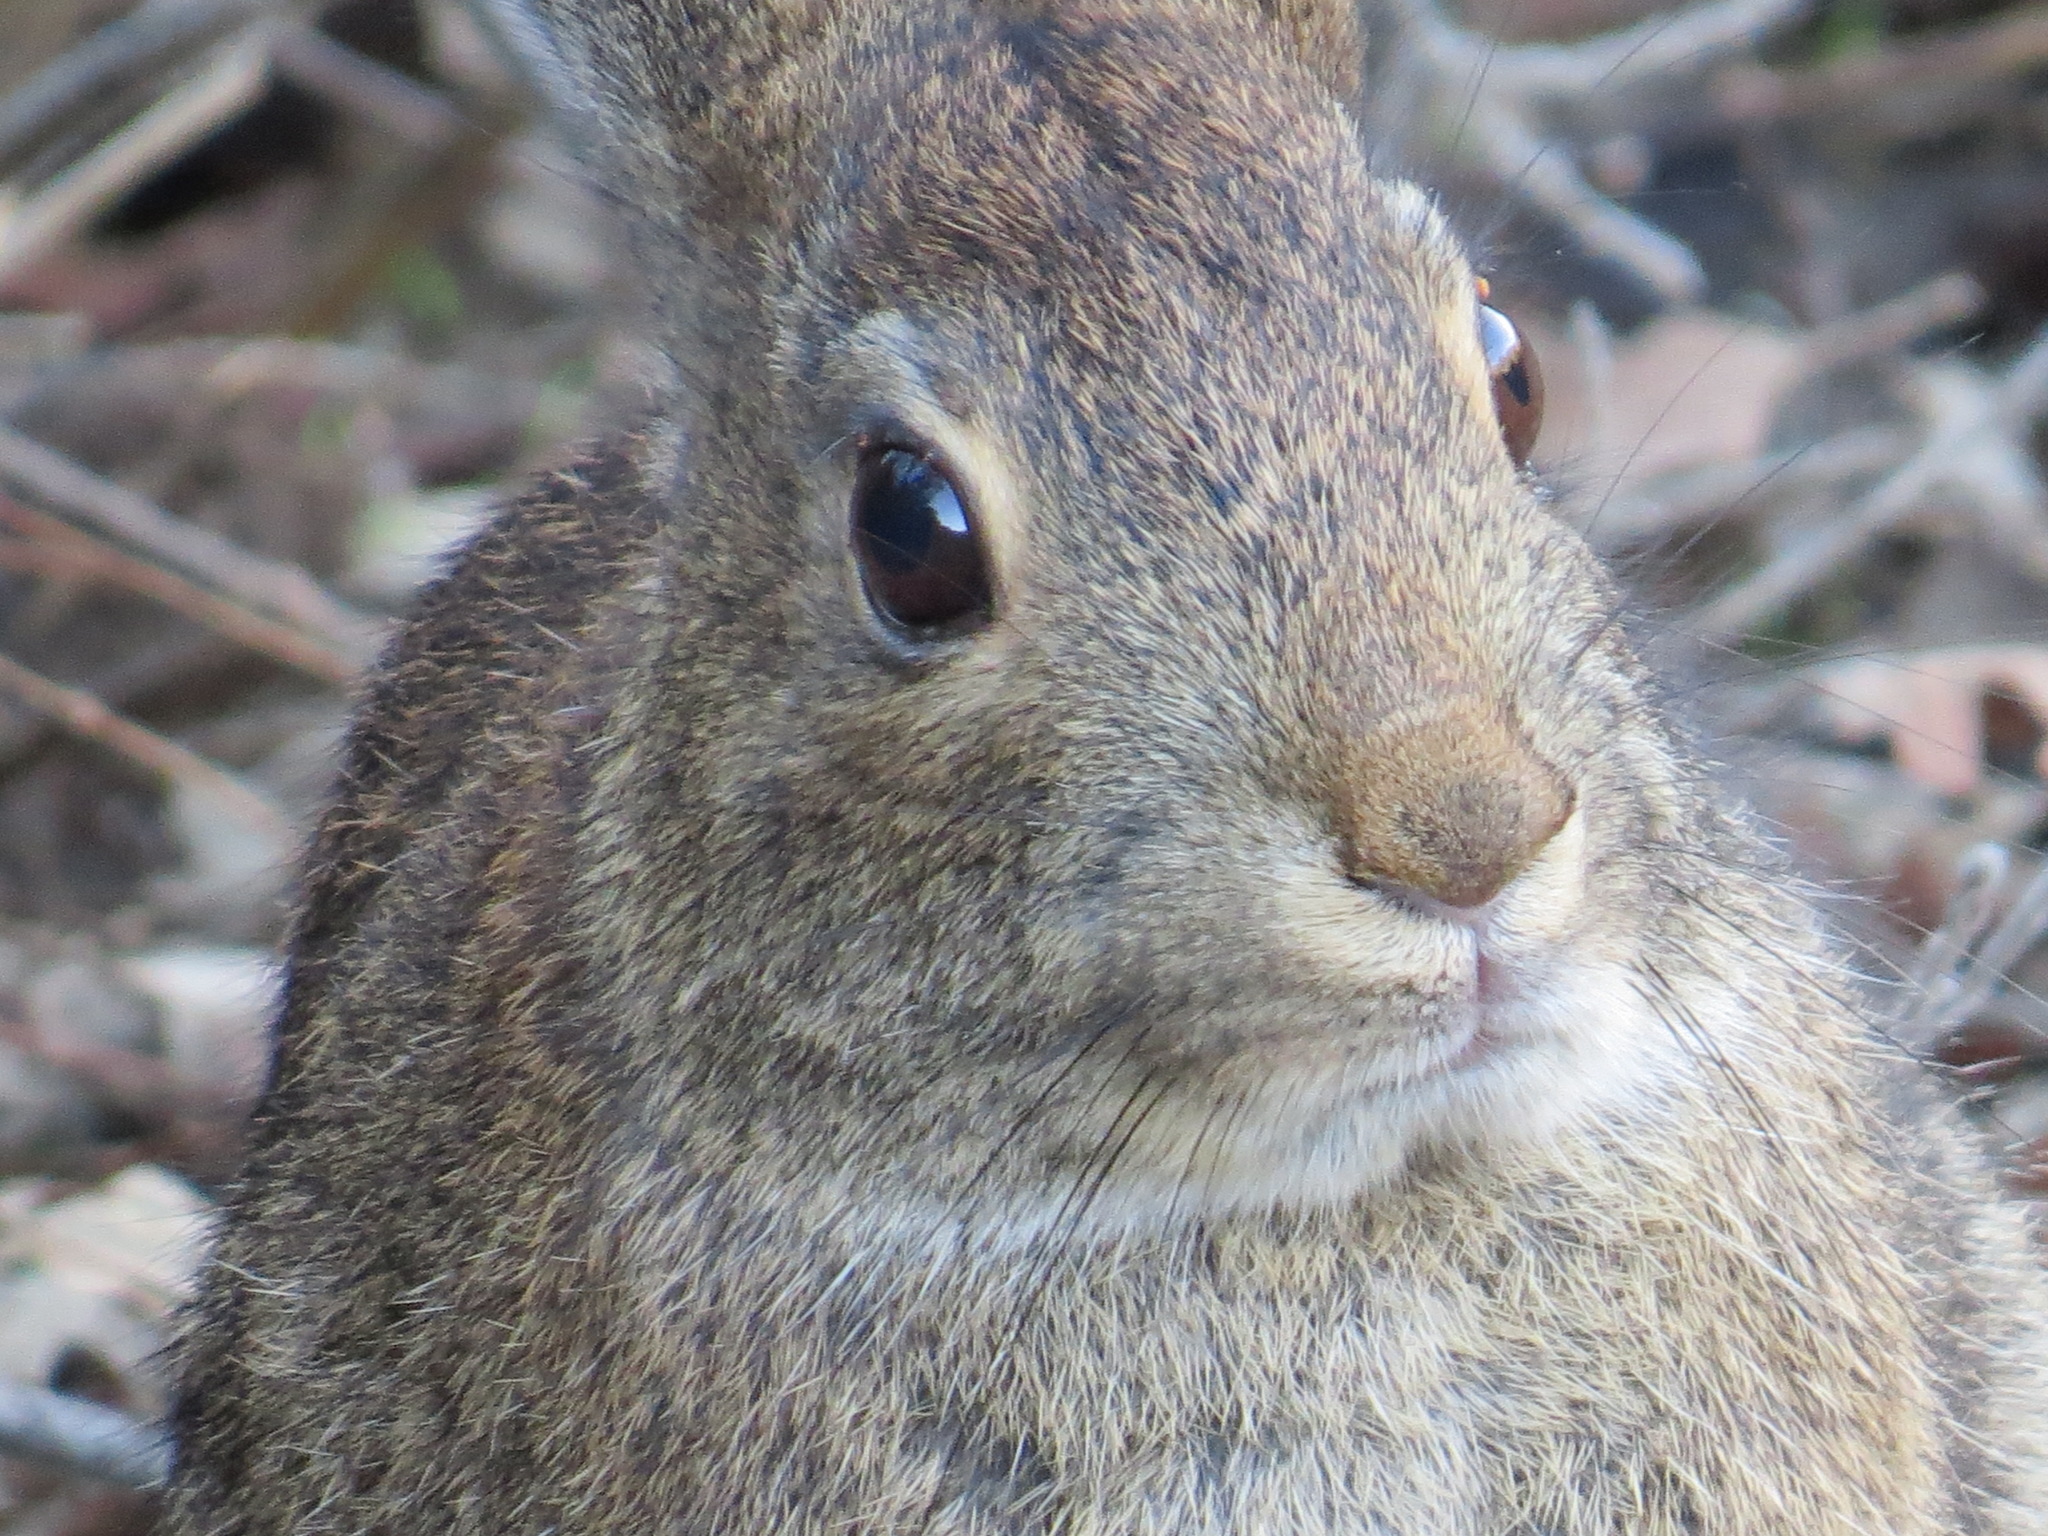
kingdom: Animalia
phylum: Chordata
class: Mammalia
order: Lagomorpha
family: Leporidae
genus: Sylvilagus
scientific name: Sylvilagus bachmani
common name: Brush rabbit
